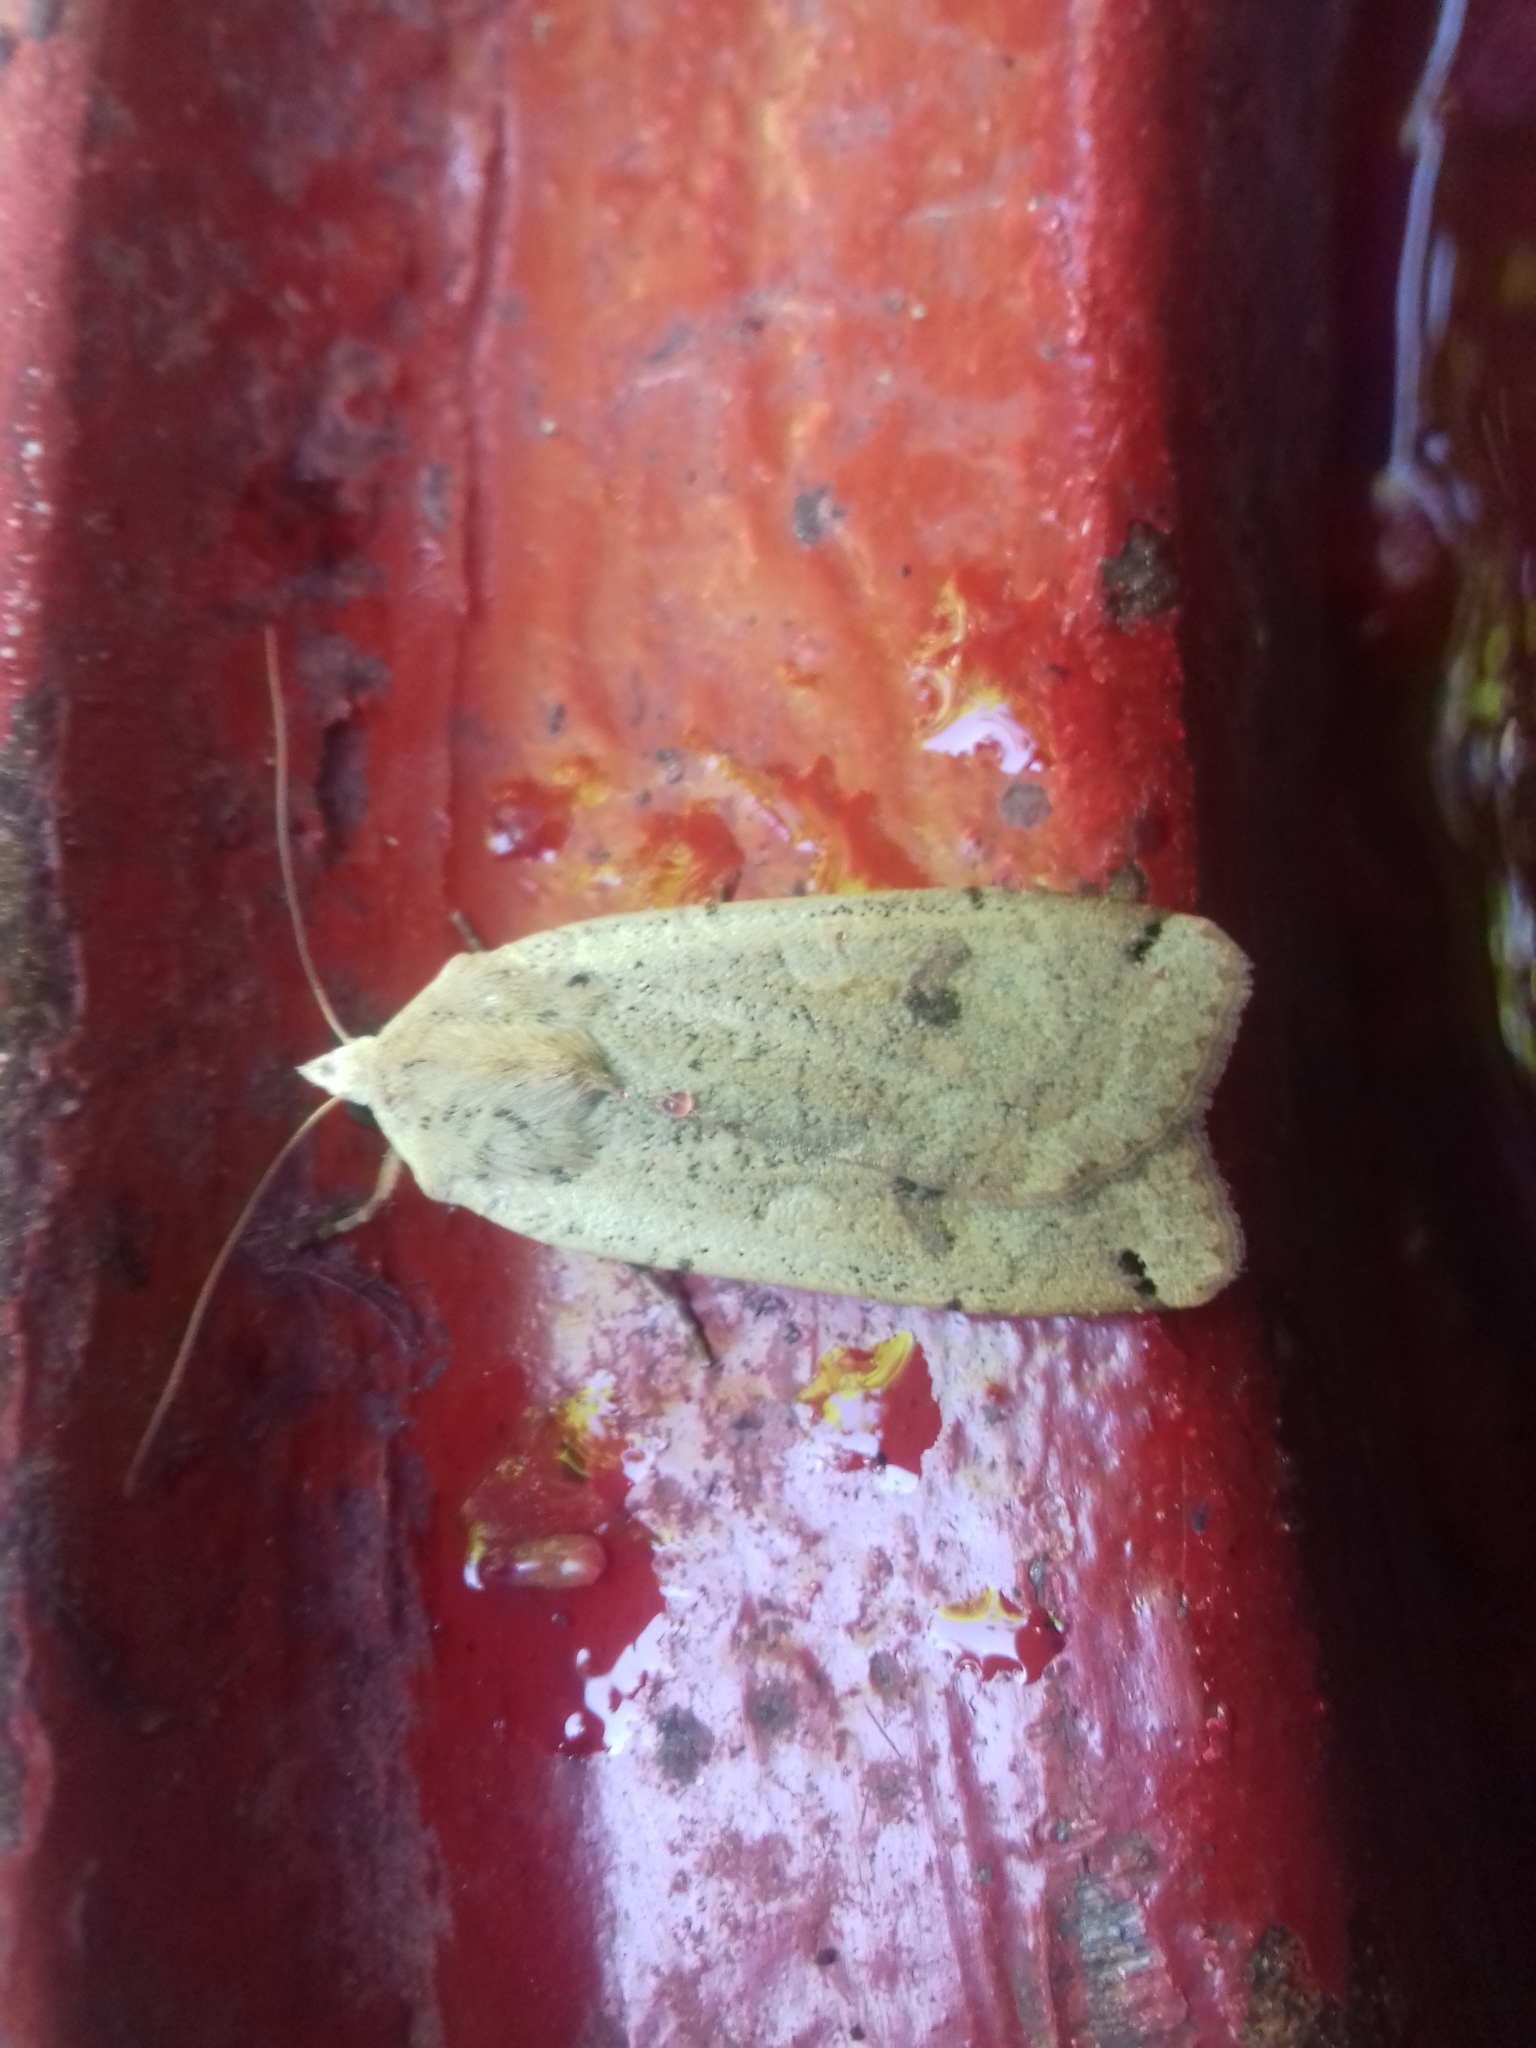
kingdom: Animalia
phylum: Arthropoda
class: Insecta
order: Lepidoptera
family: Noctuidae
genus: Noctua
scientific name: Noctua pronuba
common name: Large yellow underwing
